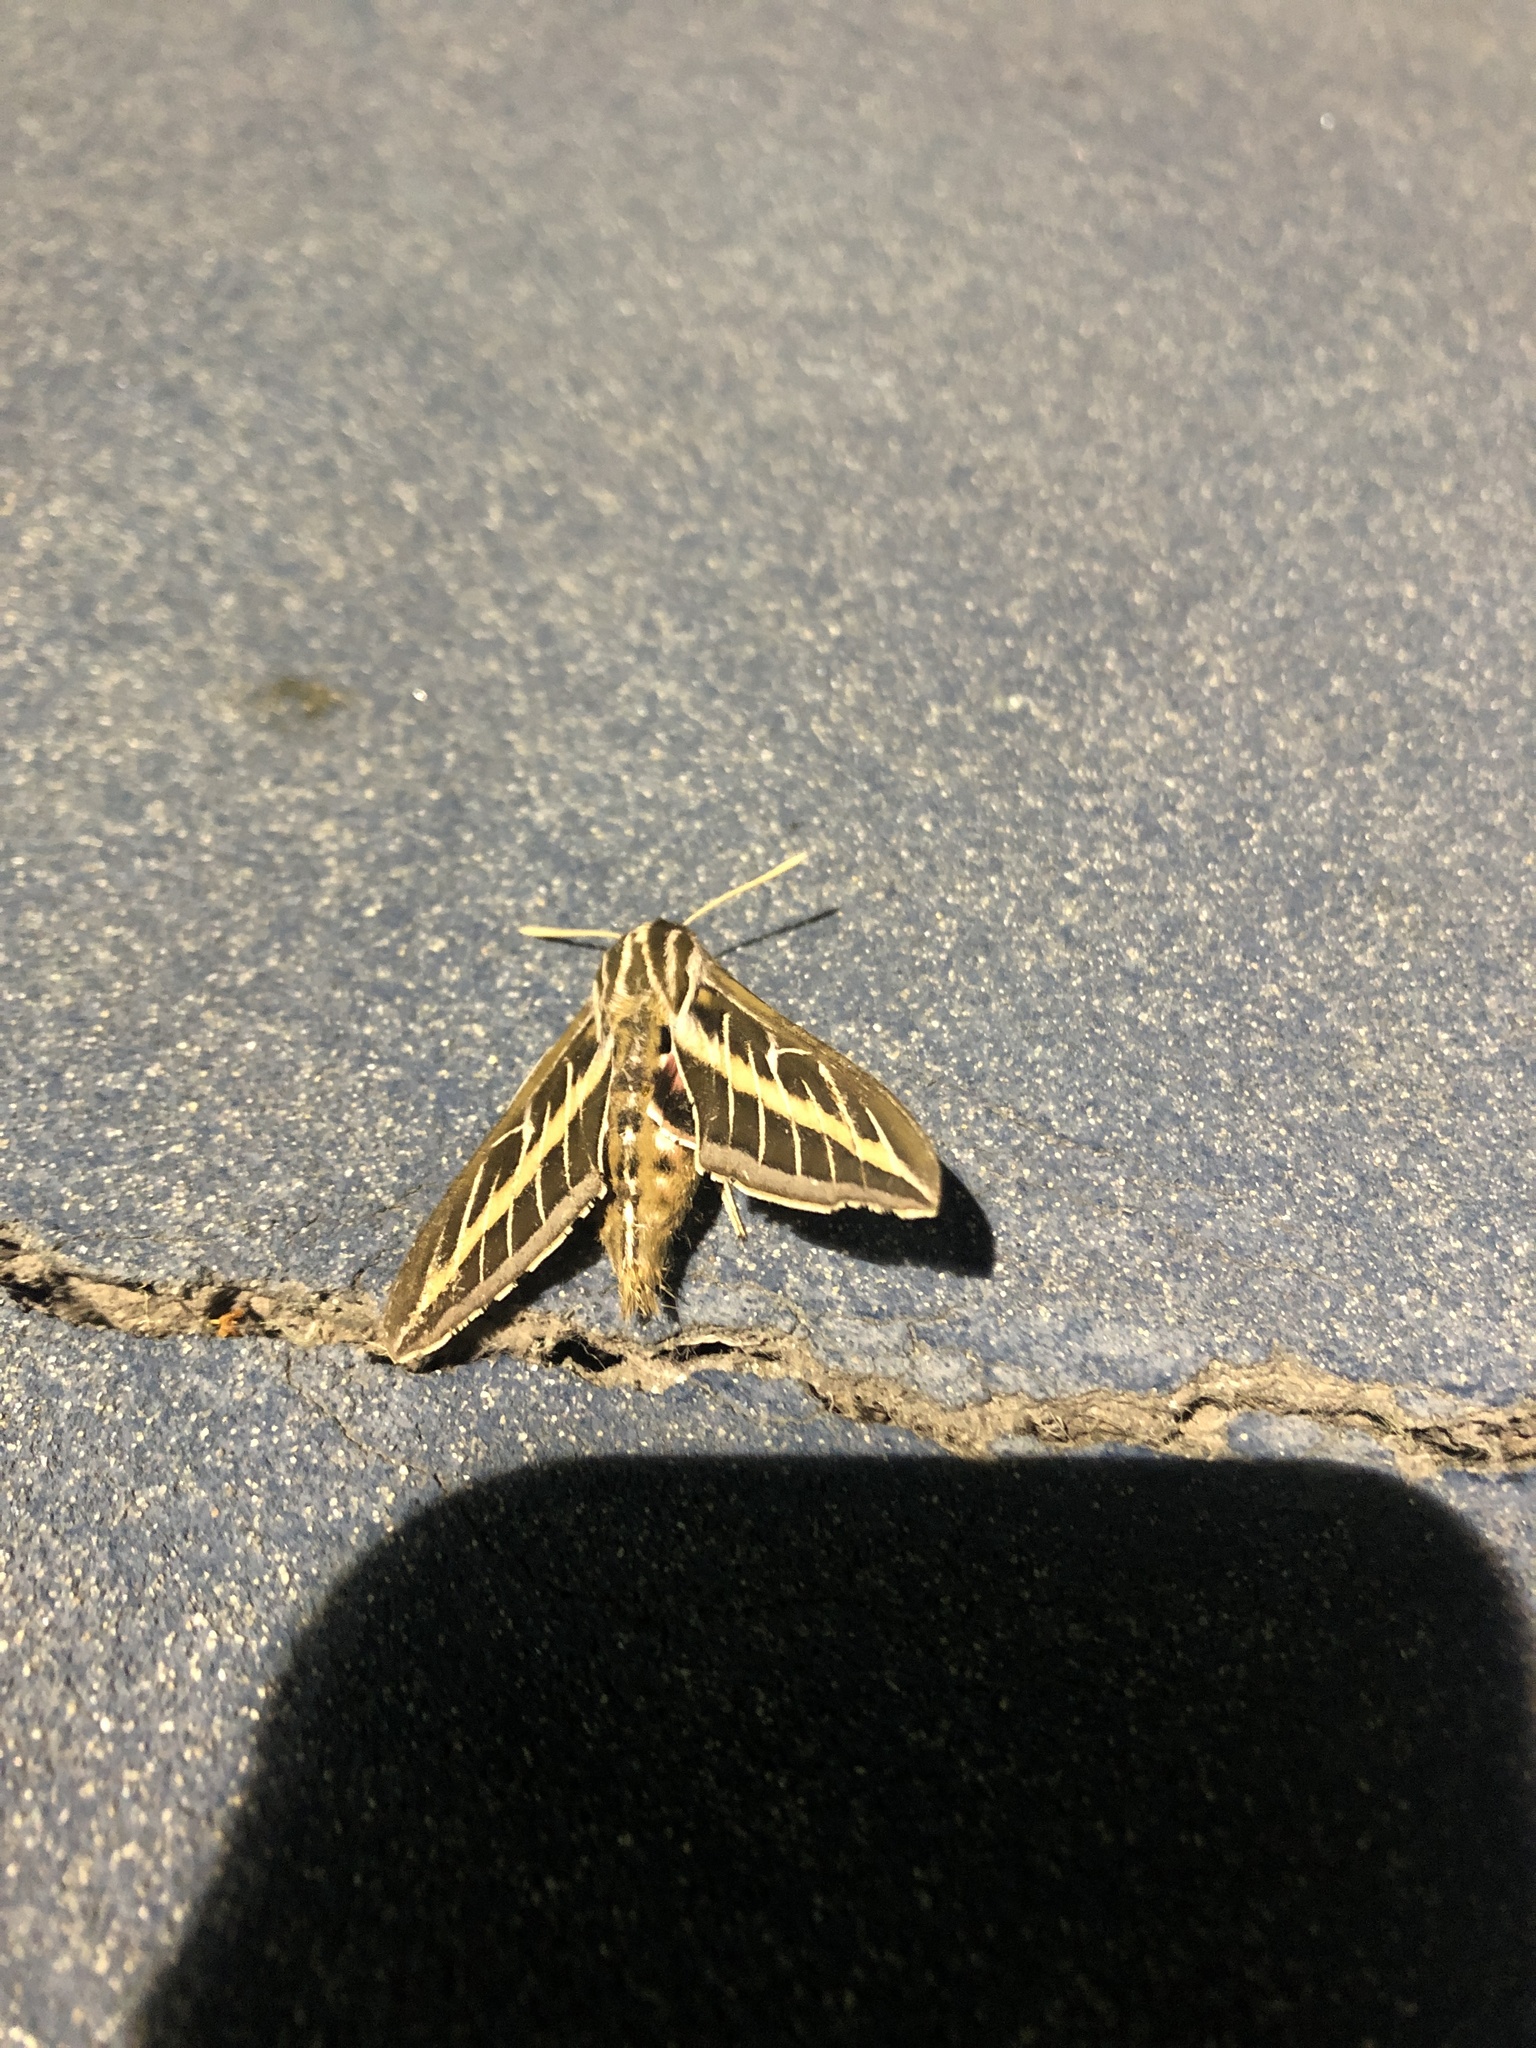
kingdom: Animalia
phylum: Arthropoda
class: Insecta
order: Lepidoptera
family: Sphingidae
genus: Hyles
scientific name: Hyles lineata
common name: White-lined sphinx
